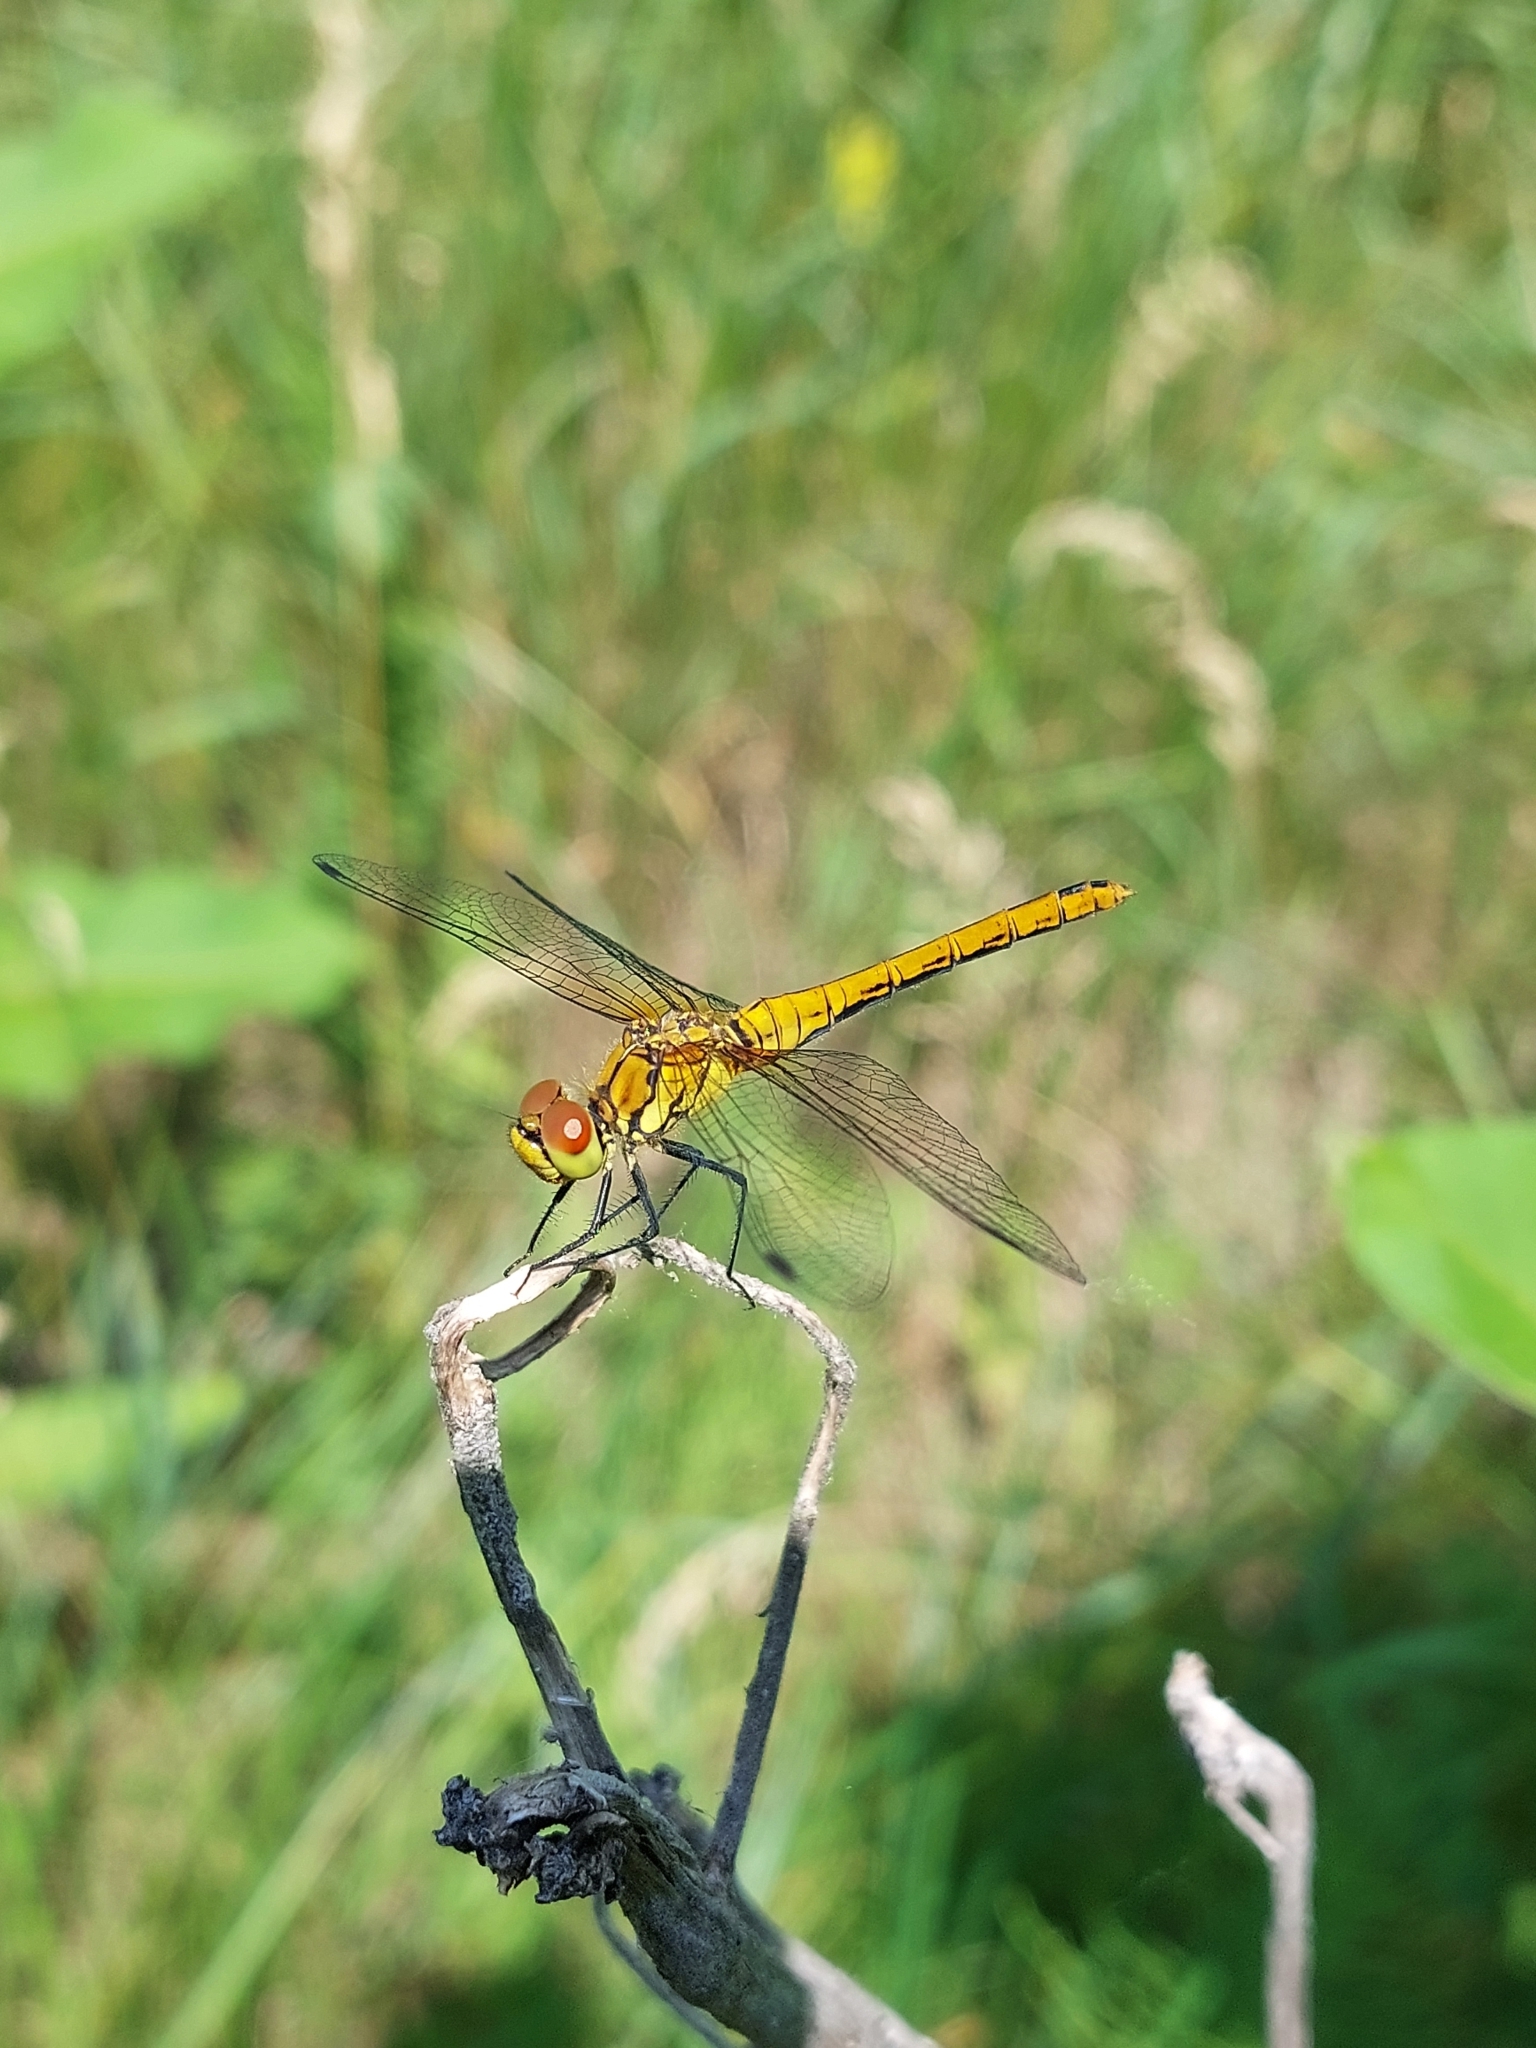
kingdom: Animalia
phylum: Arthropoda
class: Insecta
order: Odonata
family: Libellulidae
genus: Sympetrum
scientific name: Sympetrum sanguineum
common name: Ruddy darter
